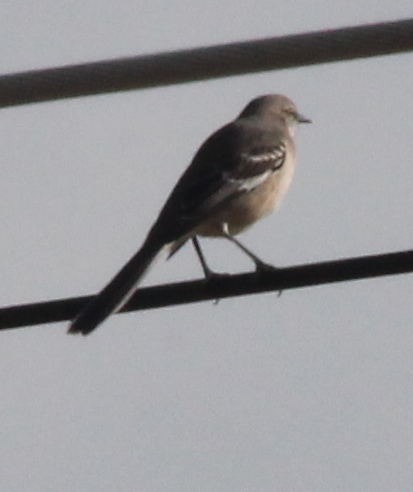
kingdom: Animalia
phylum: Chordata
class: Aves
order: Passeriformes
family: Mimidae
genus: Mimus
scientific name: Mimus polyglottos
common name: Northern mockingbird
